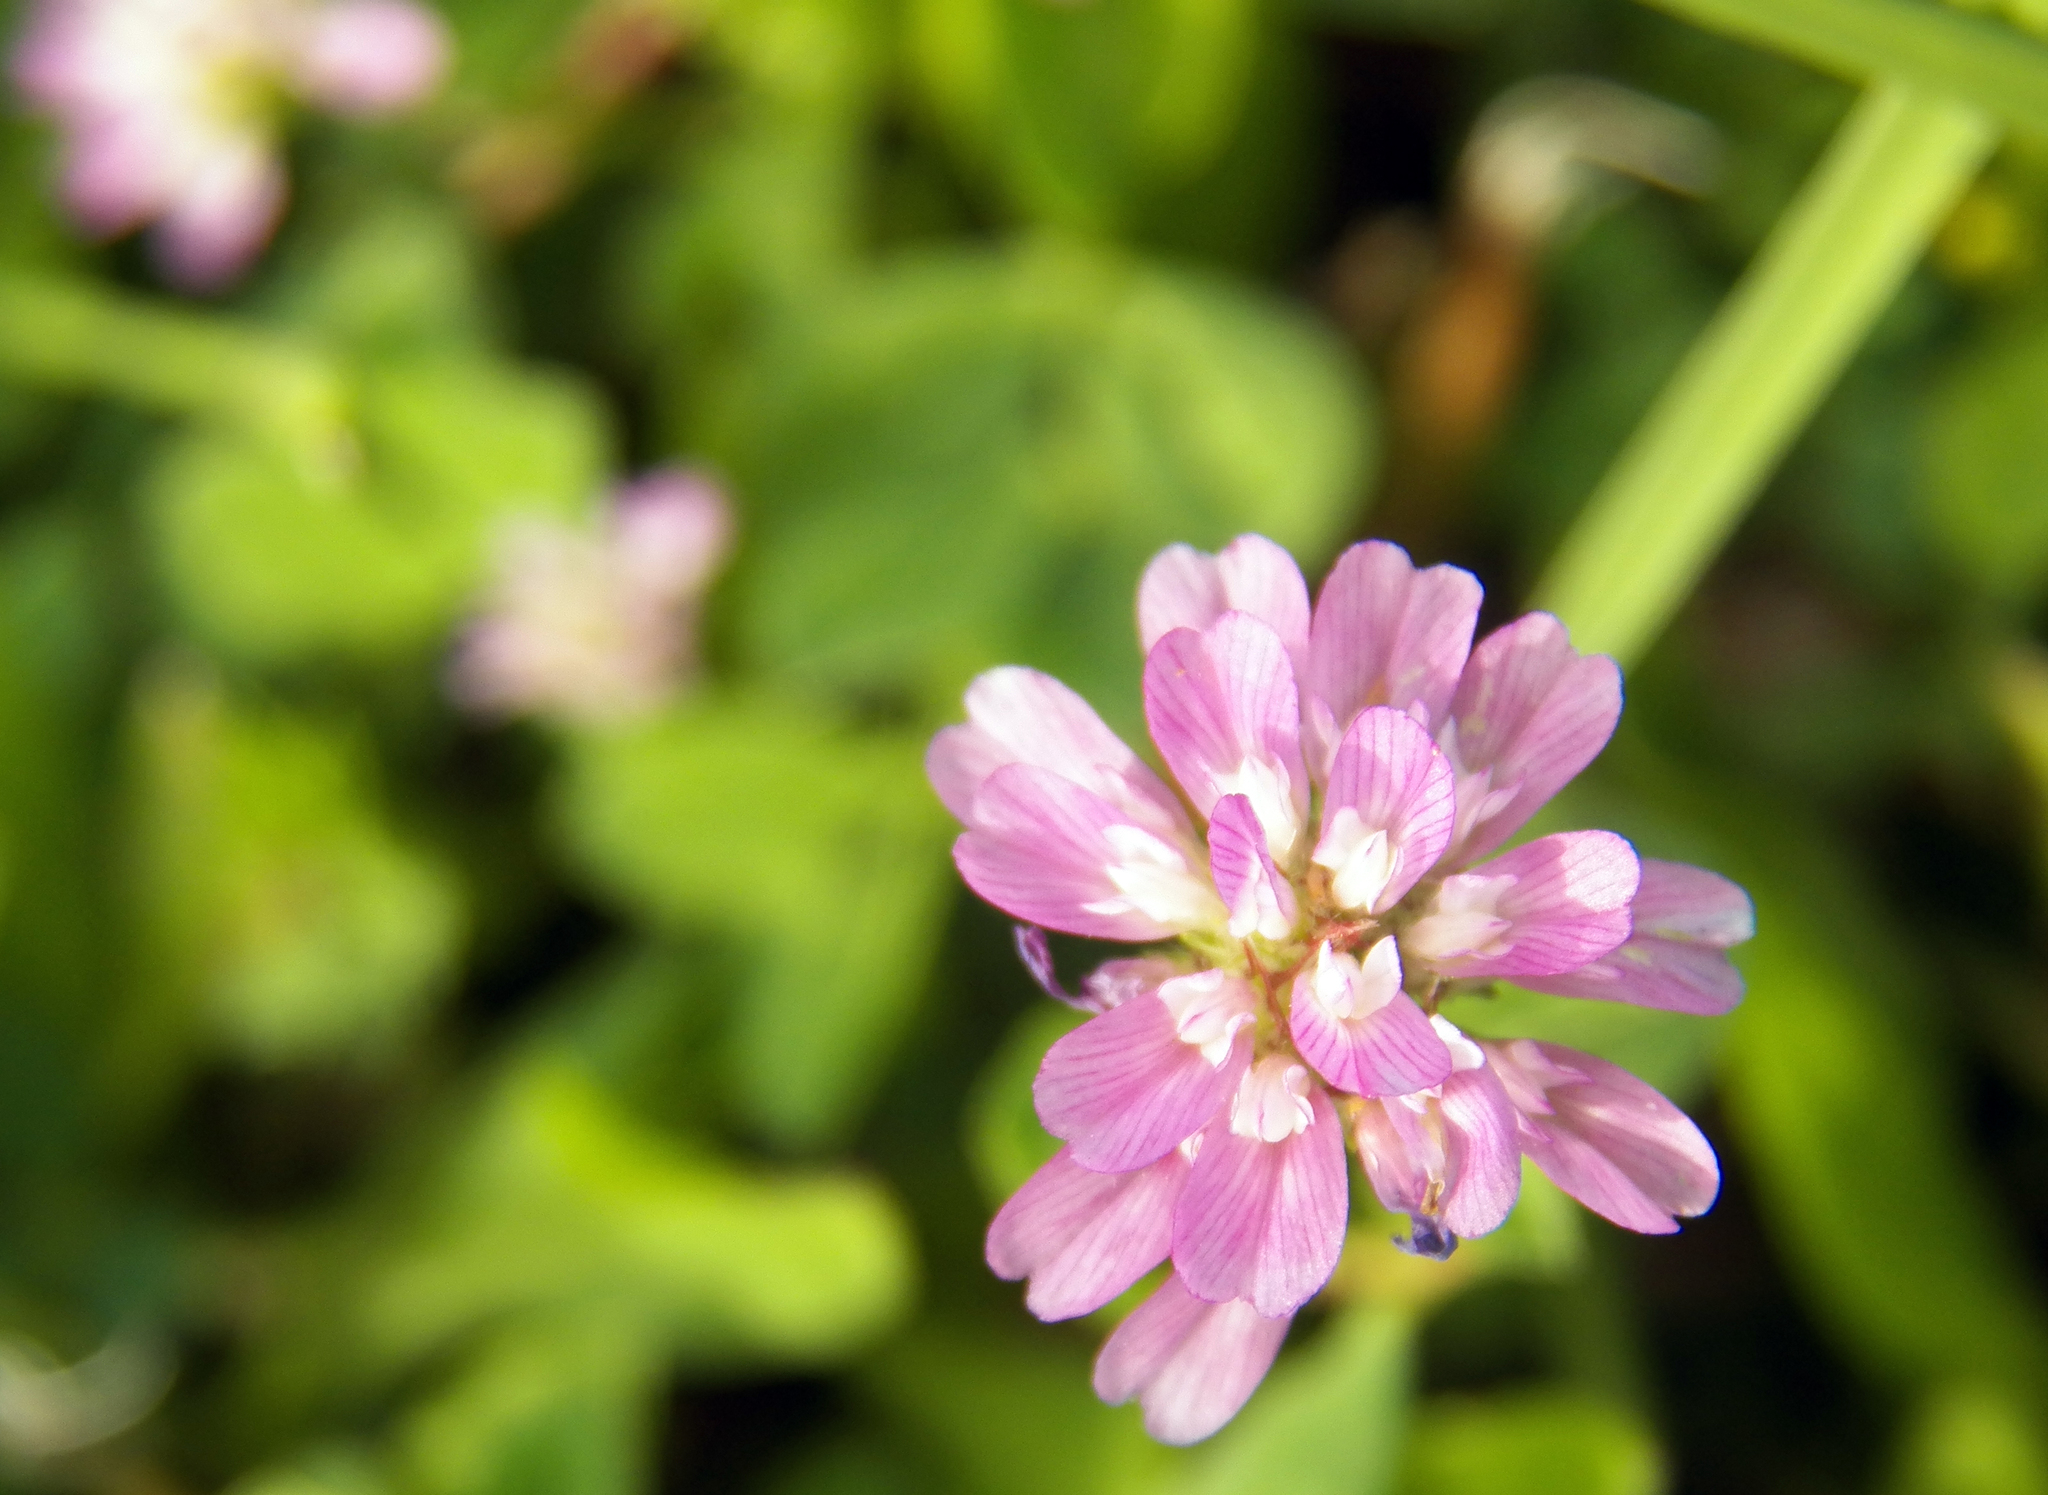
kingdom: Plantae
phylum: Tracheophyta
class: Magnoliopsida
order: Fabales
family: Fabaceae
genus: Trifolium
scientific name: Trifolium resupinatum
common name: Reversed clover
